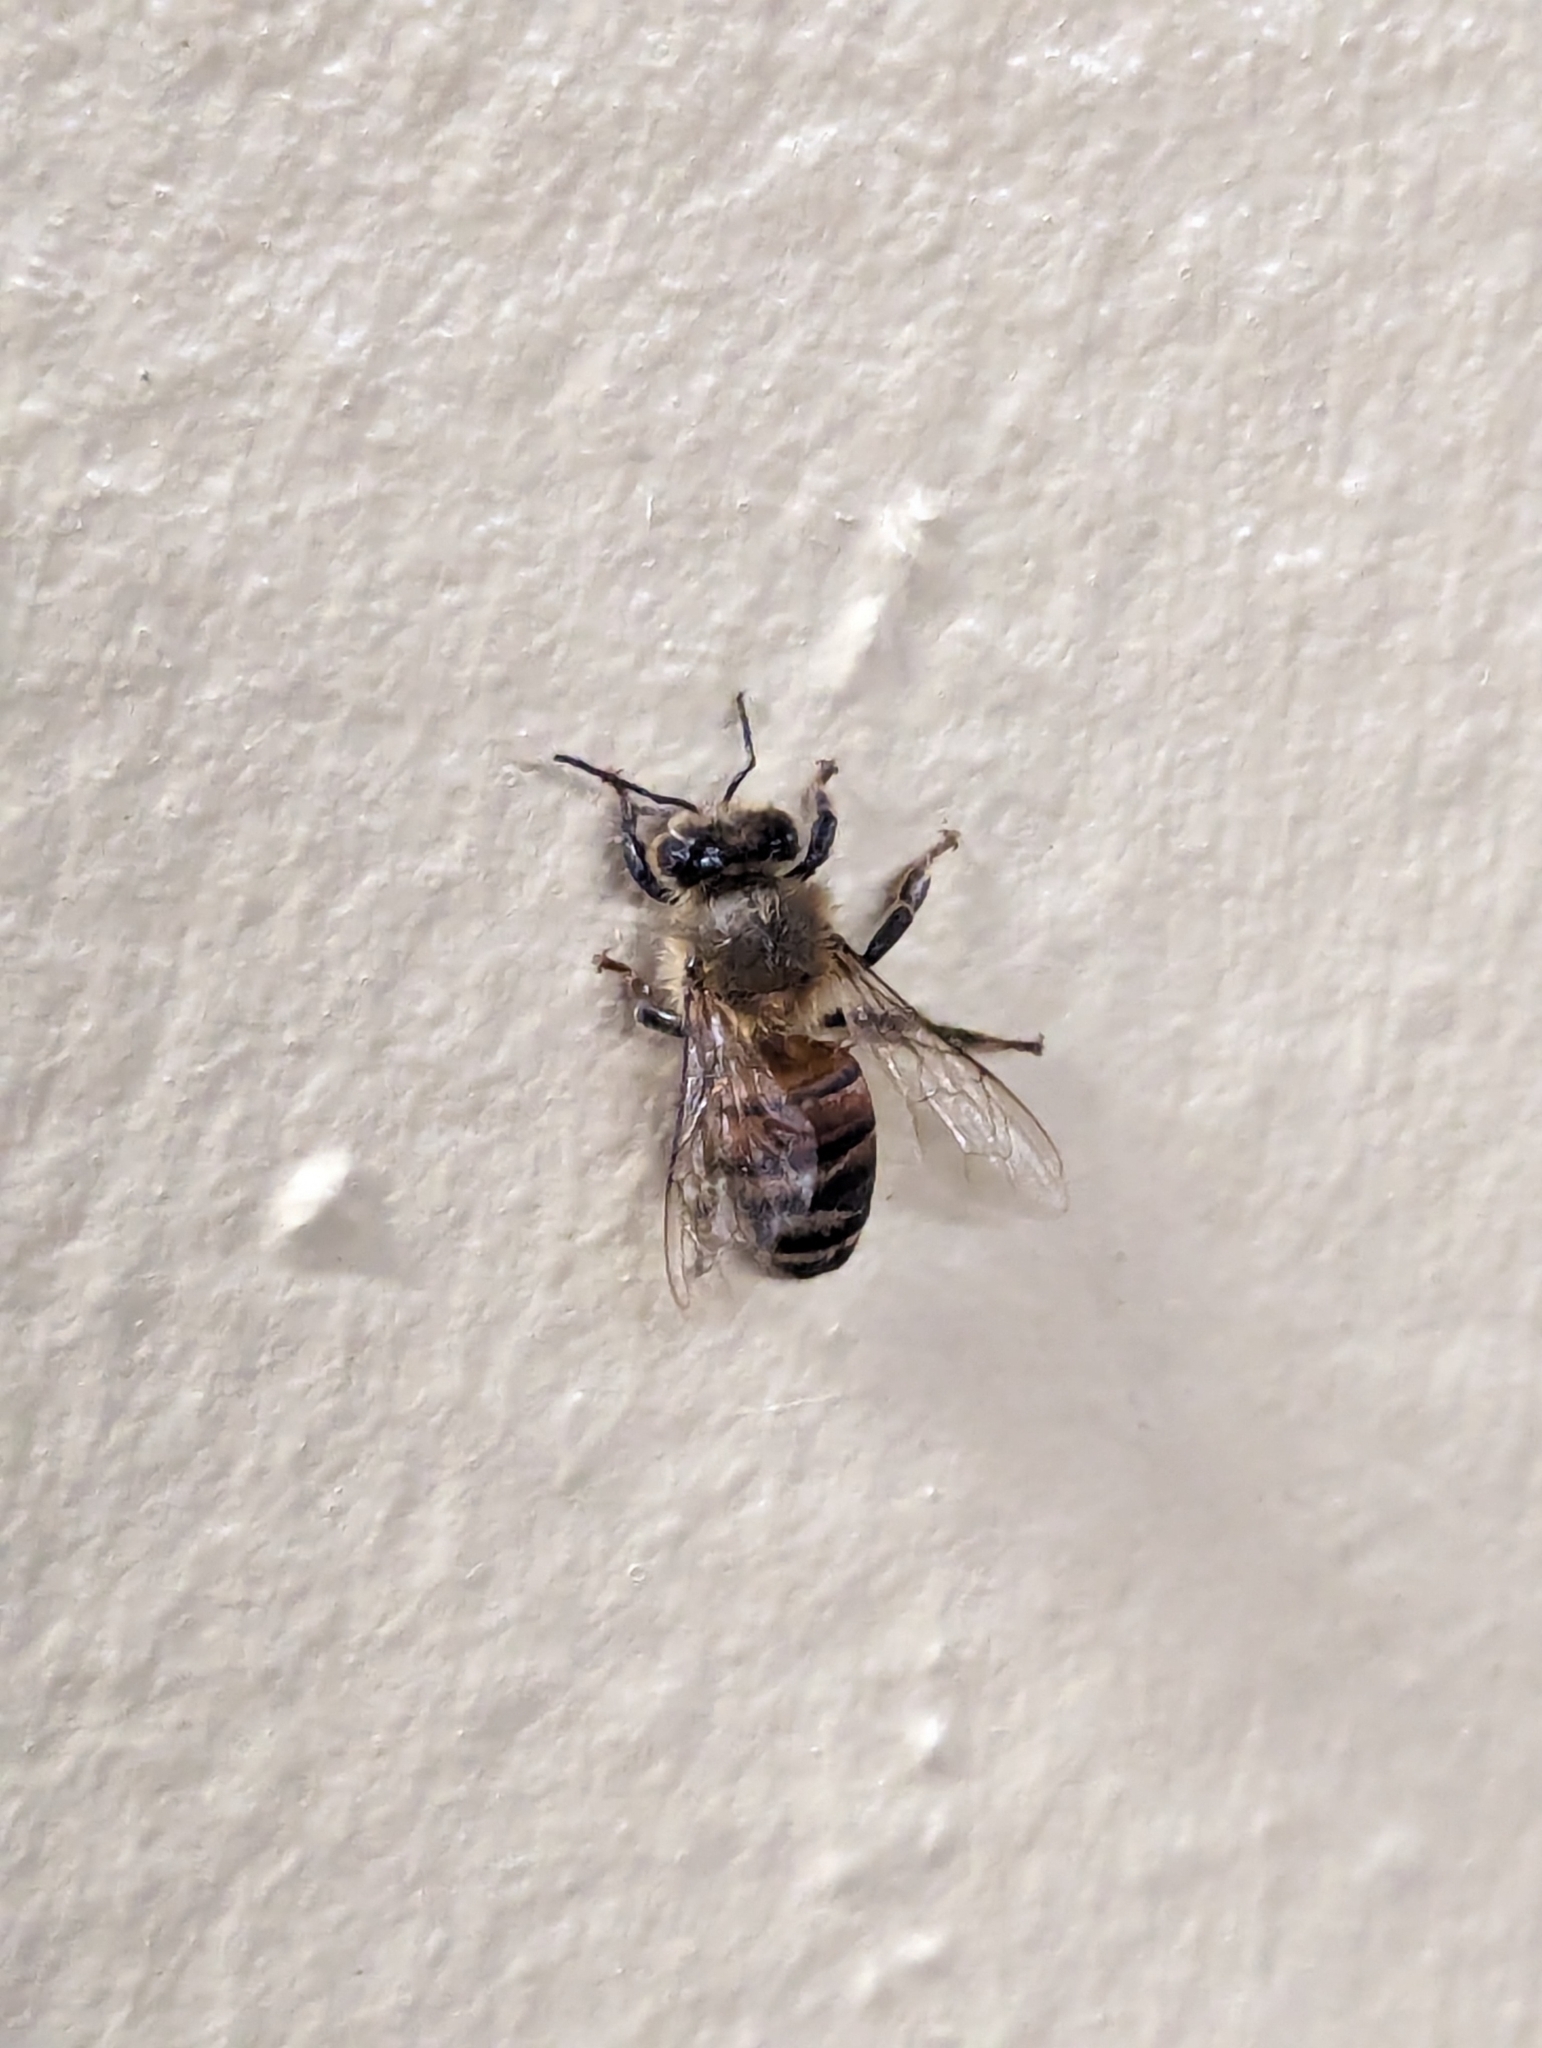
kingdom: Animalia
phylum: Arthropoda
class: Insecta
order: Hymenoptera
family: Apidae
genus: Apis
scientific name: Apis mellifera
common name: Honey bee
